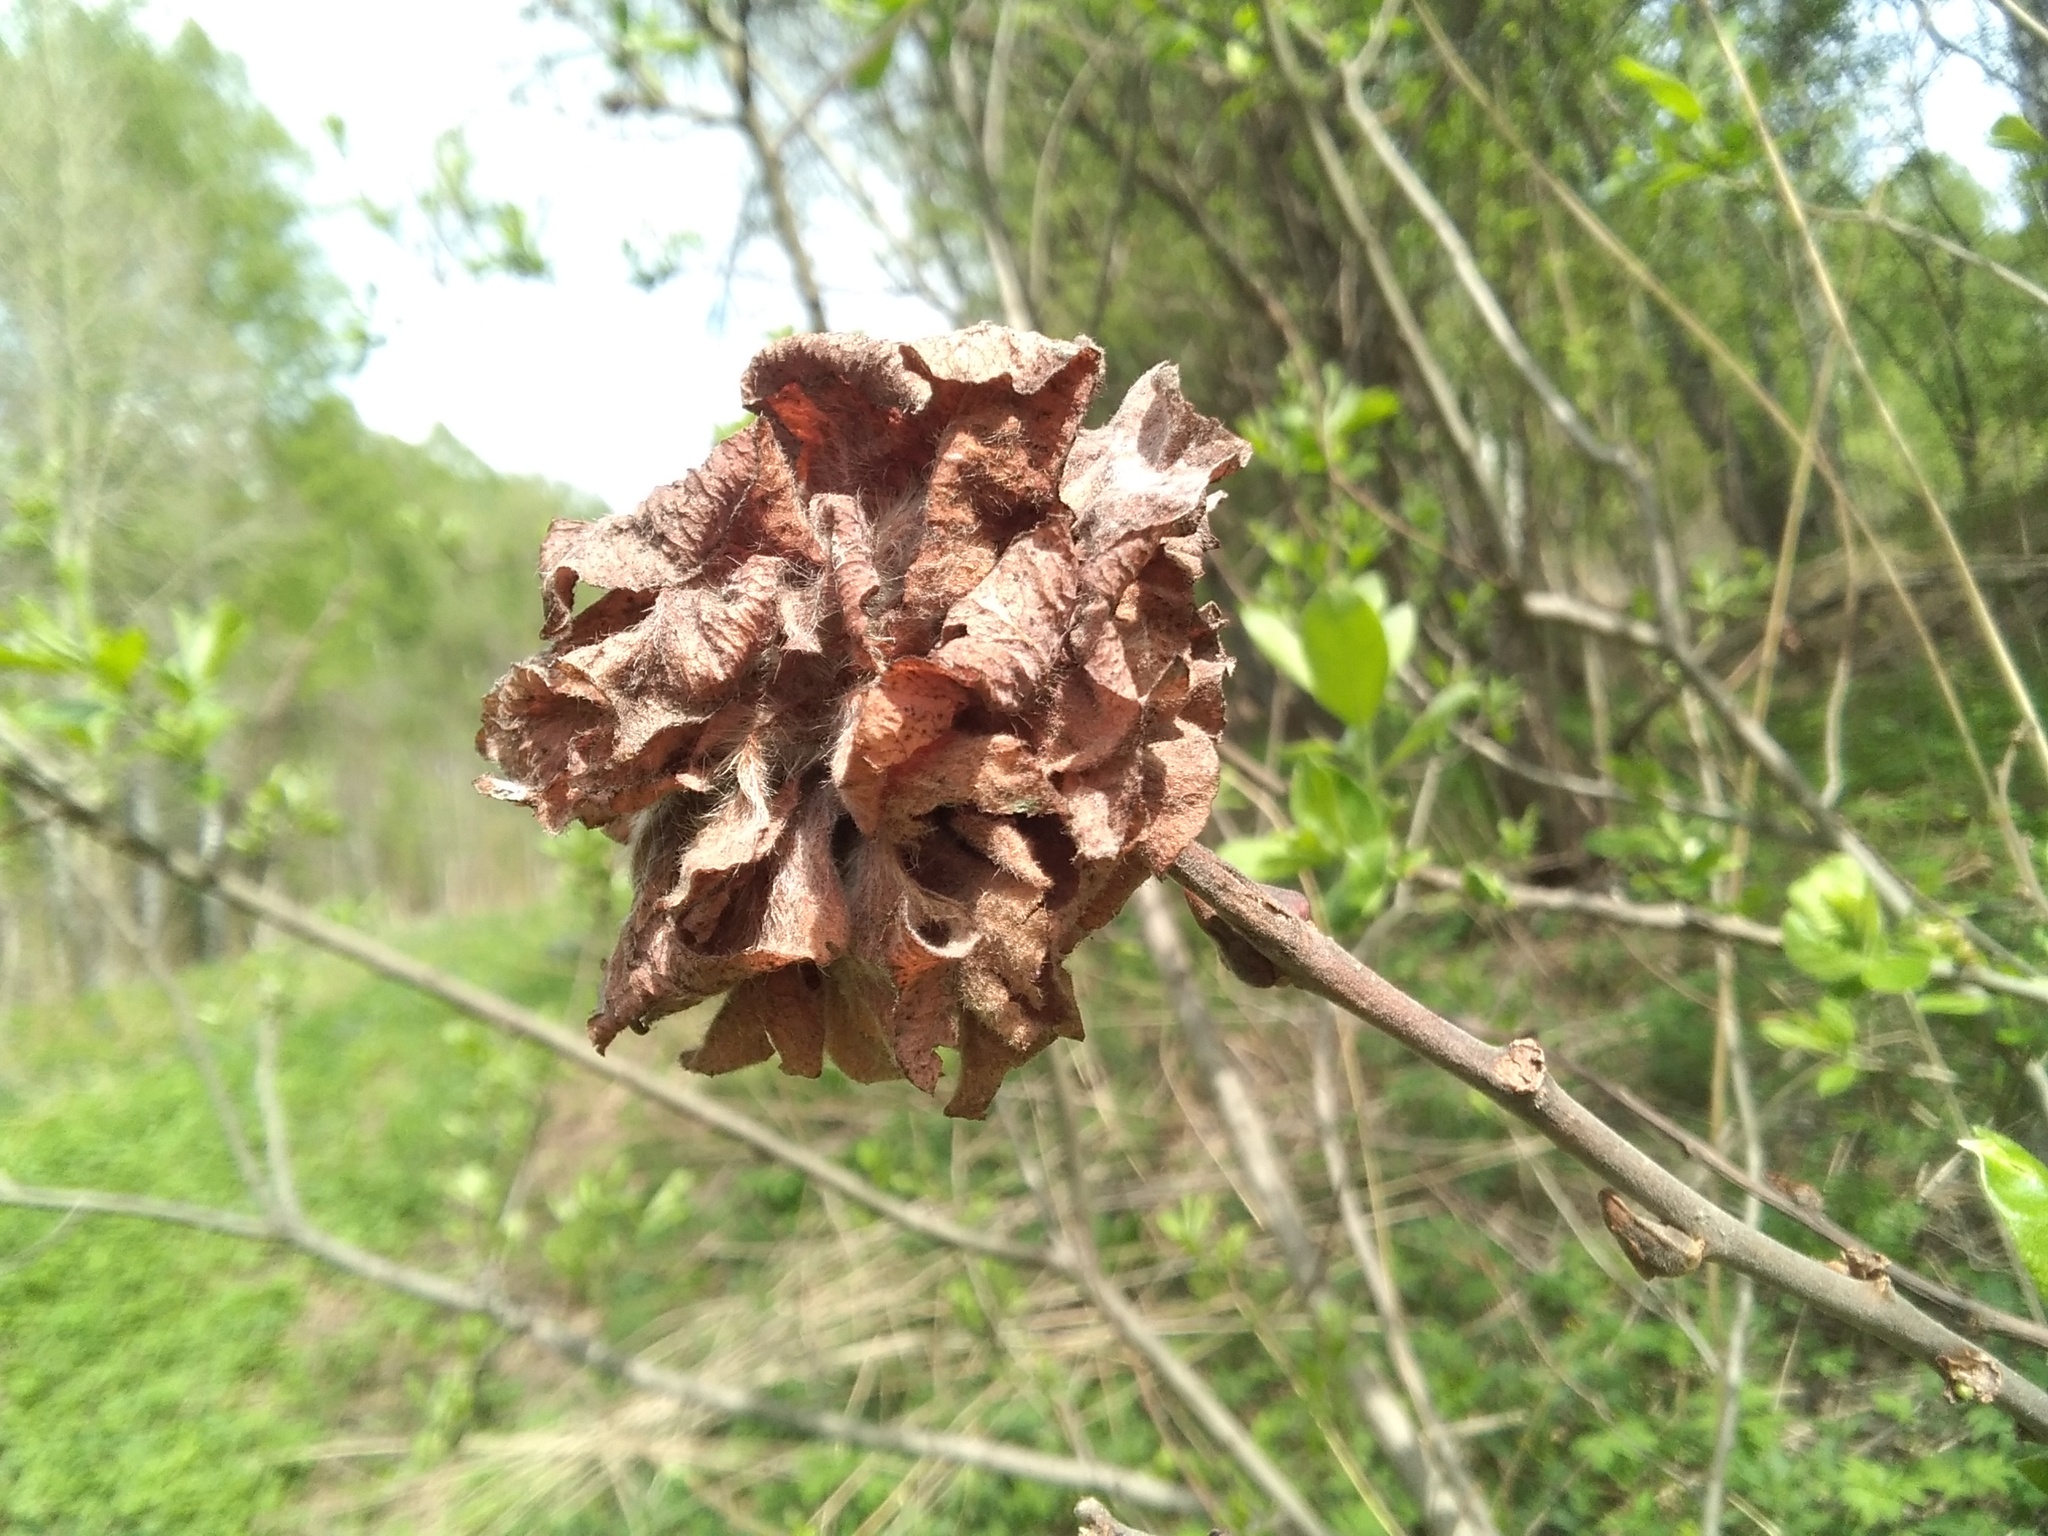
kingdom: Animalia
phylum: Arthropoda
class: Insecta
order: Diptera
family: Cecidomyiidae
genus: Rabdophaga
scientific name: Rabdophaga rosaria
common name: Willow rose gall midge
